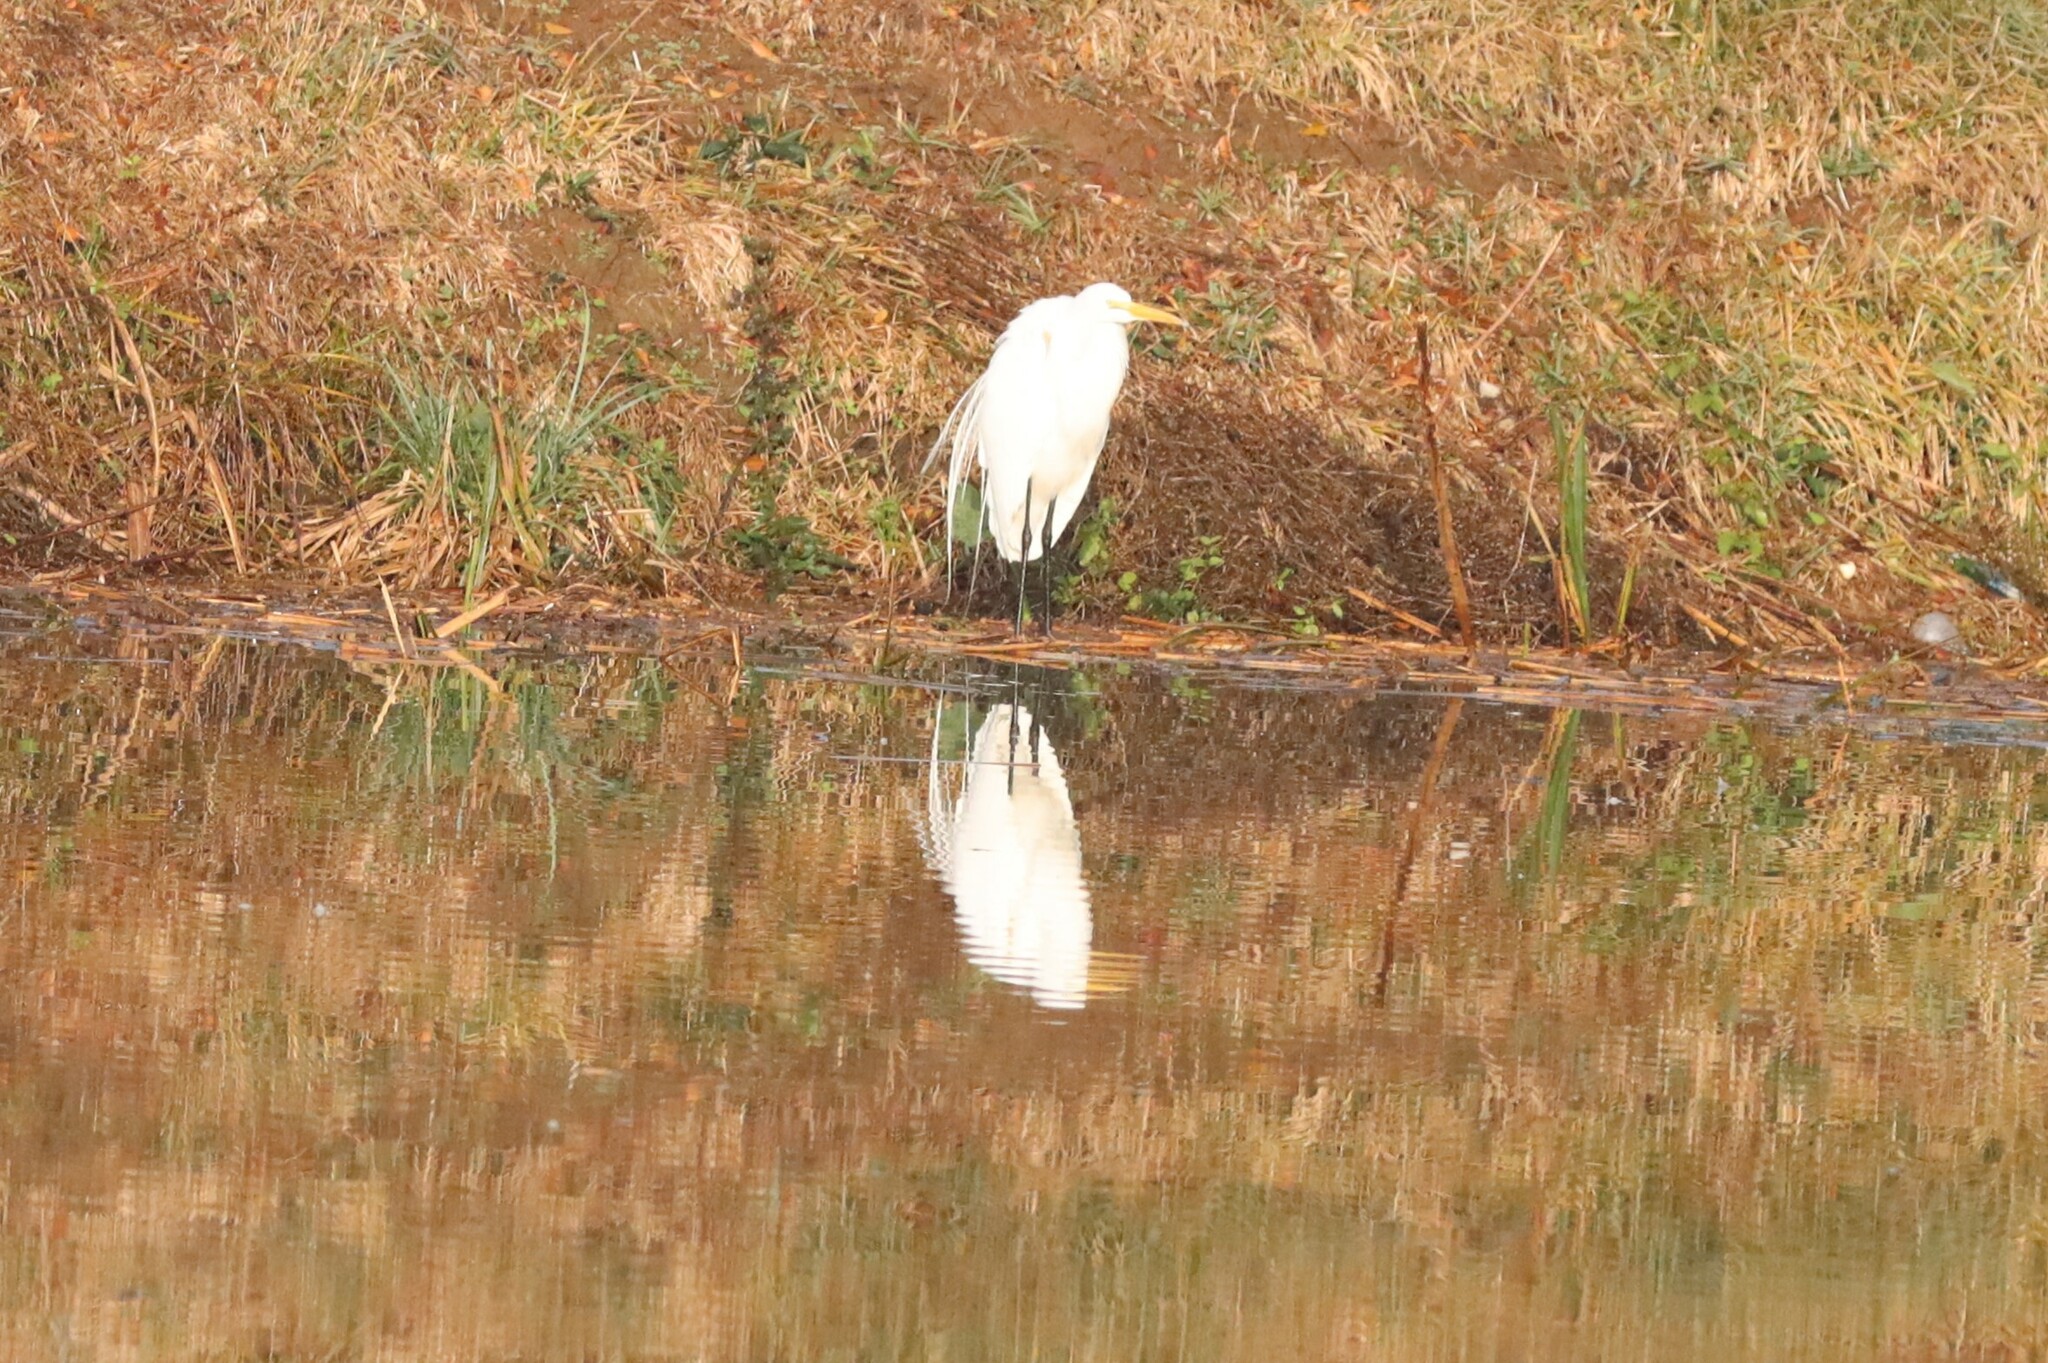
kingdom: Animalia
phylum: Chordata
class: Aves
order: Pelecaniformes
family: Ardeidae
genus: Ardea
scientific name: Ardea alba
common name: Great egret
